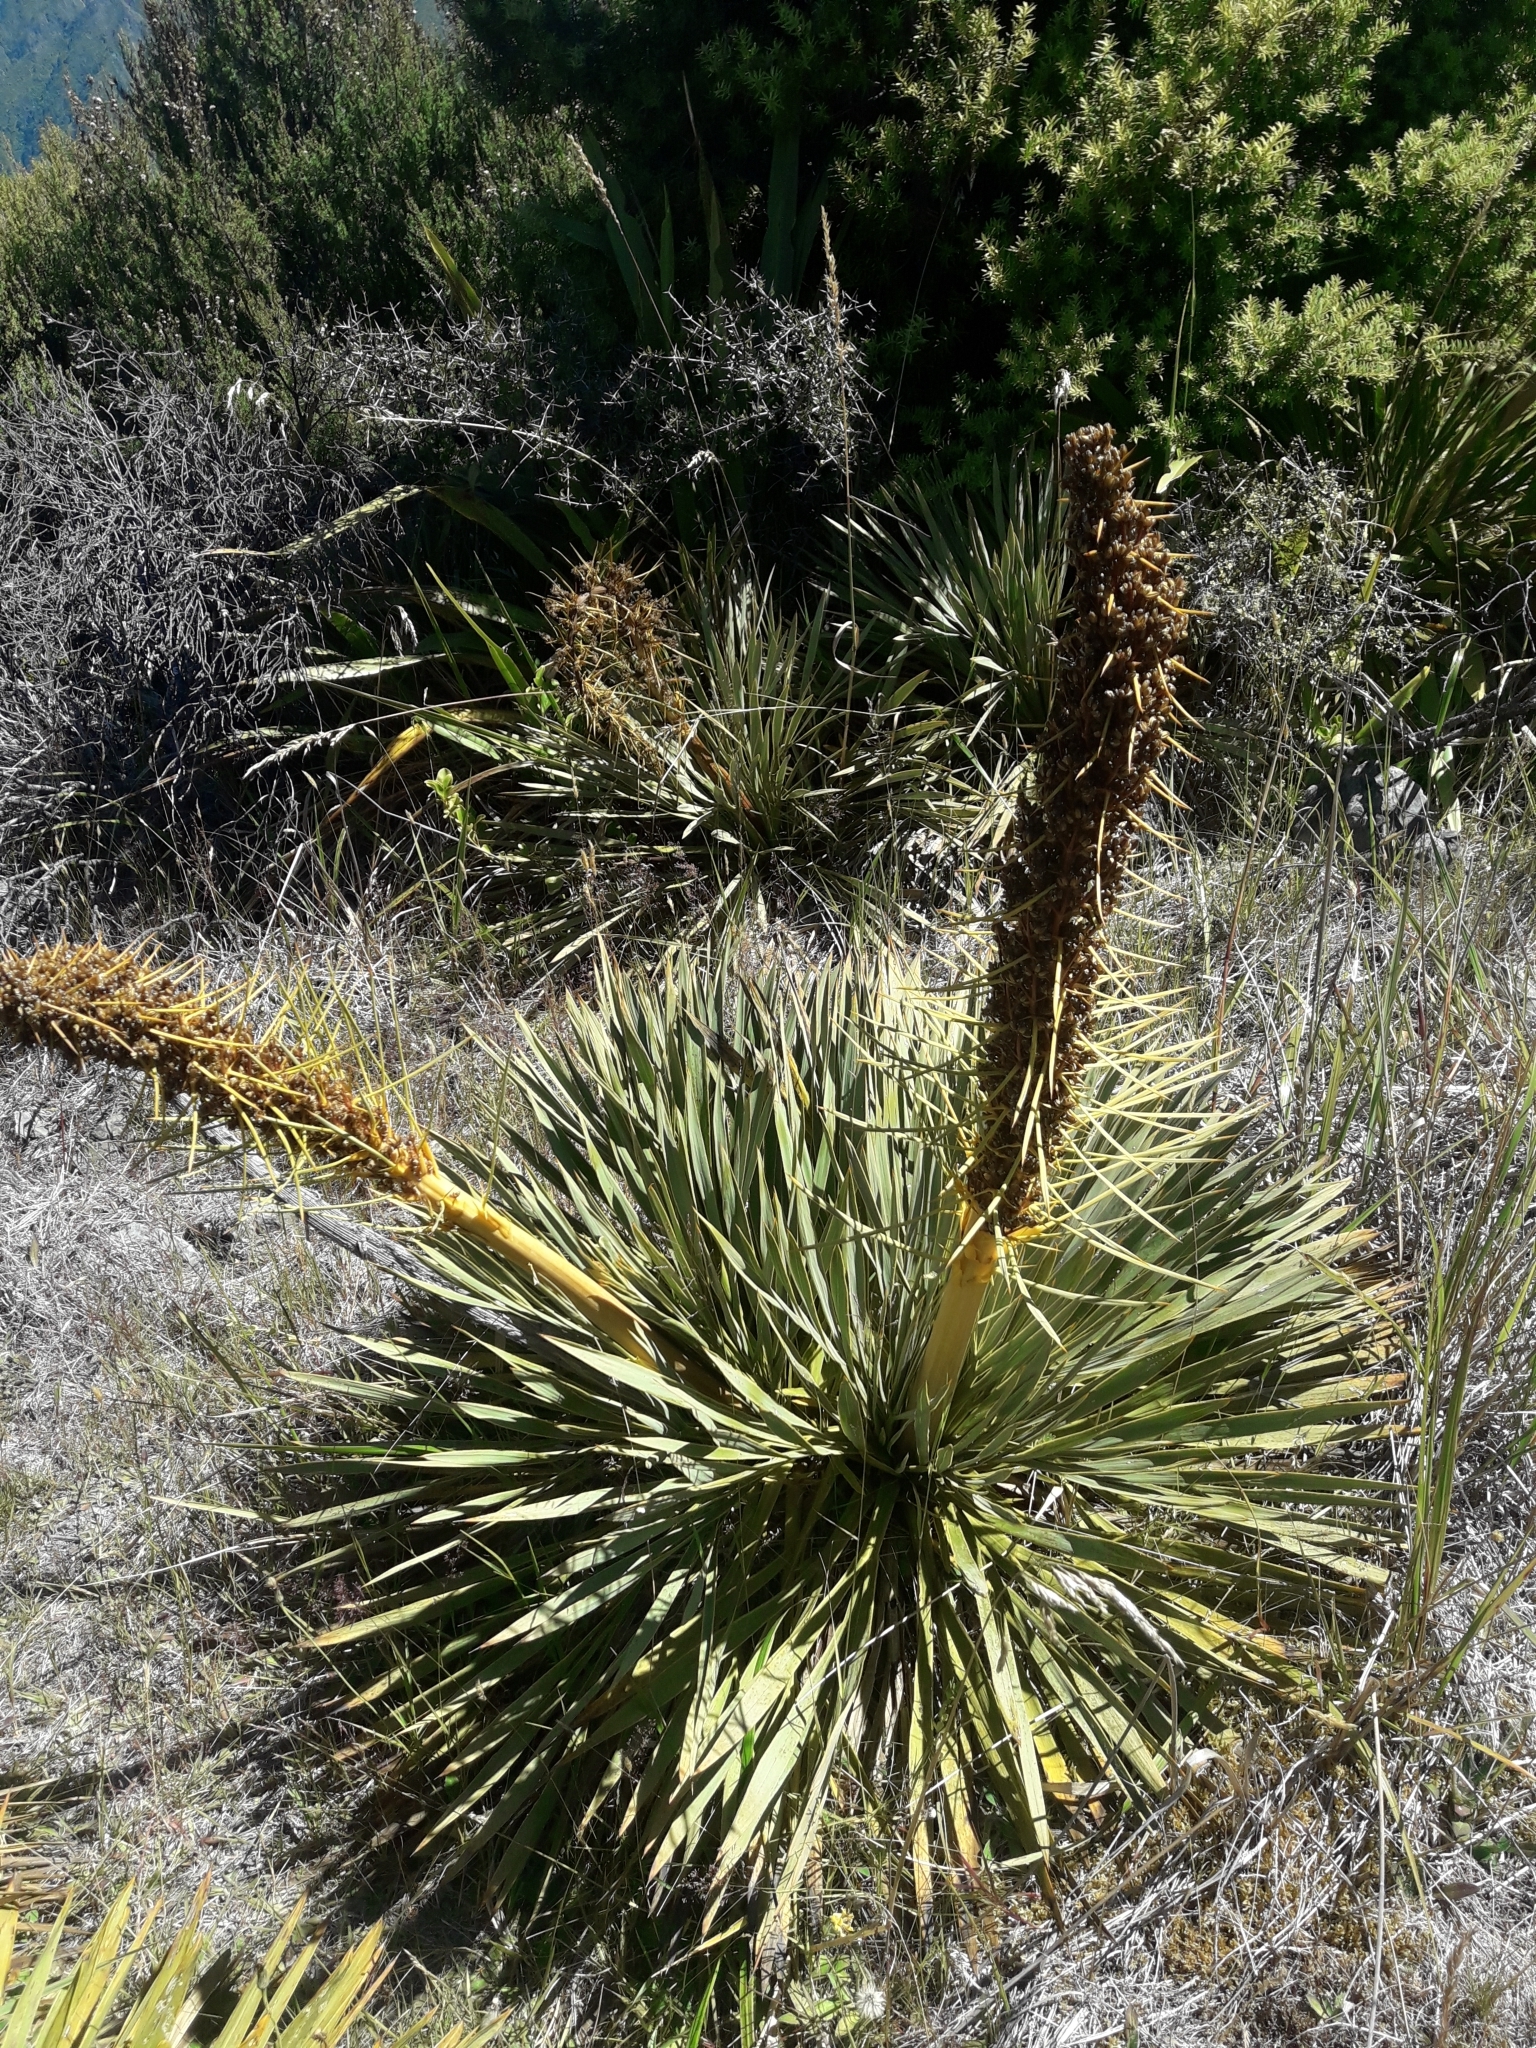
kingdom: Plantae
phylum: Tracheophyta
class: Magnoliopsida
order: Apiales
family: Apiaceae
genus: Aciphylla
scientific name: Aciphylla aurea
